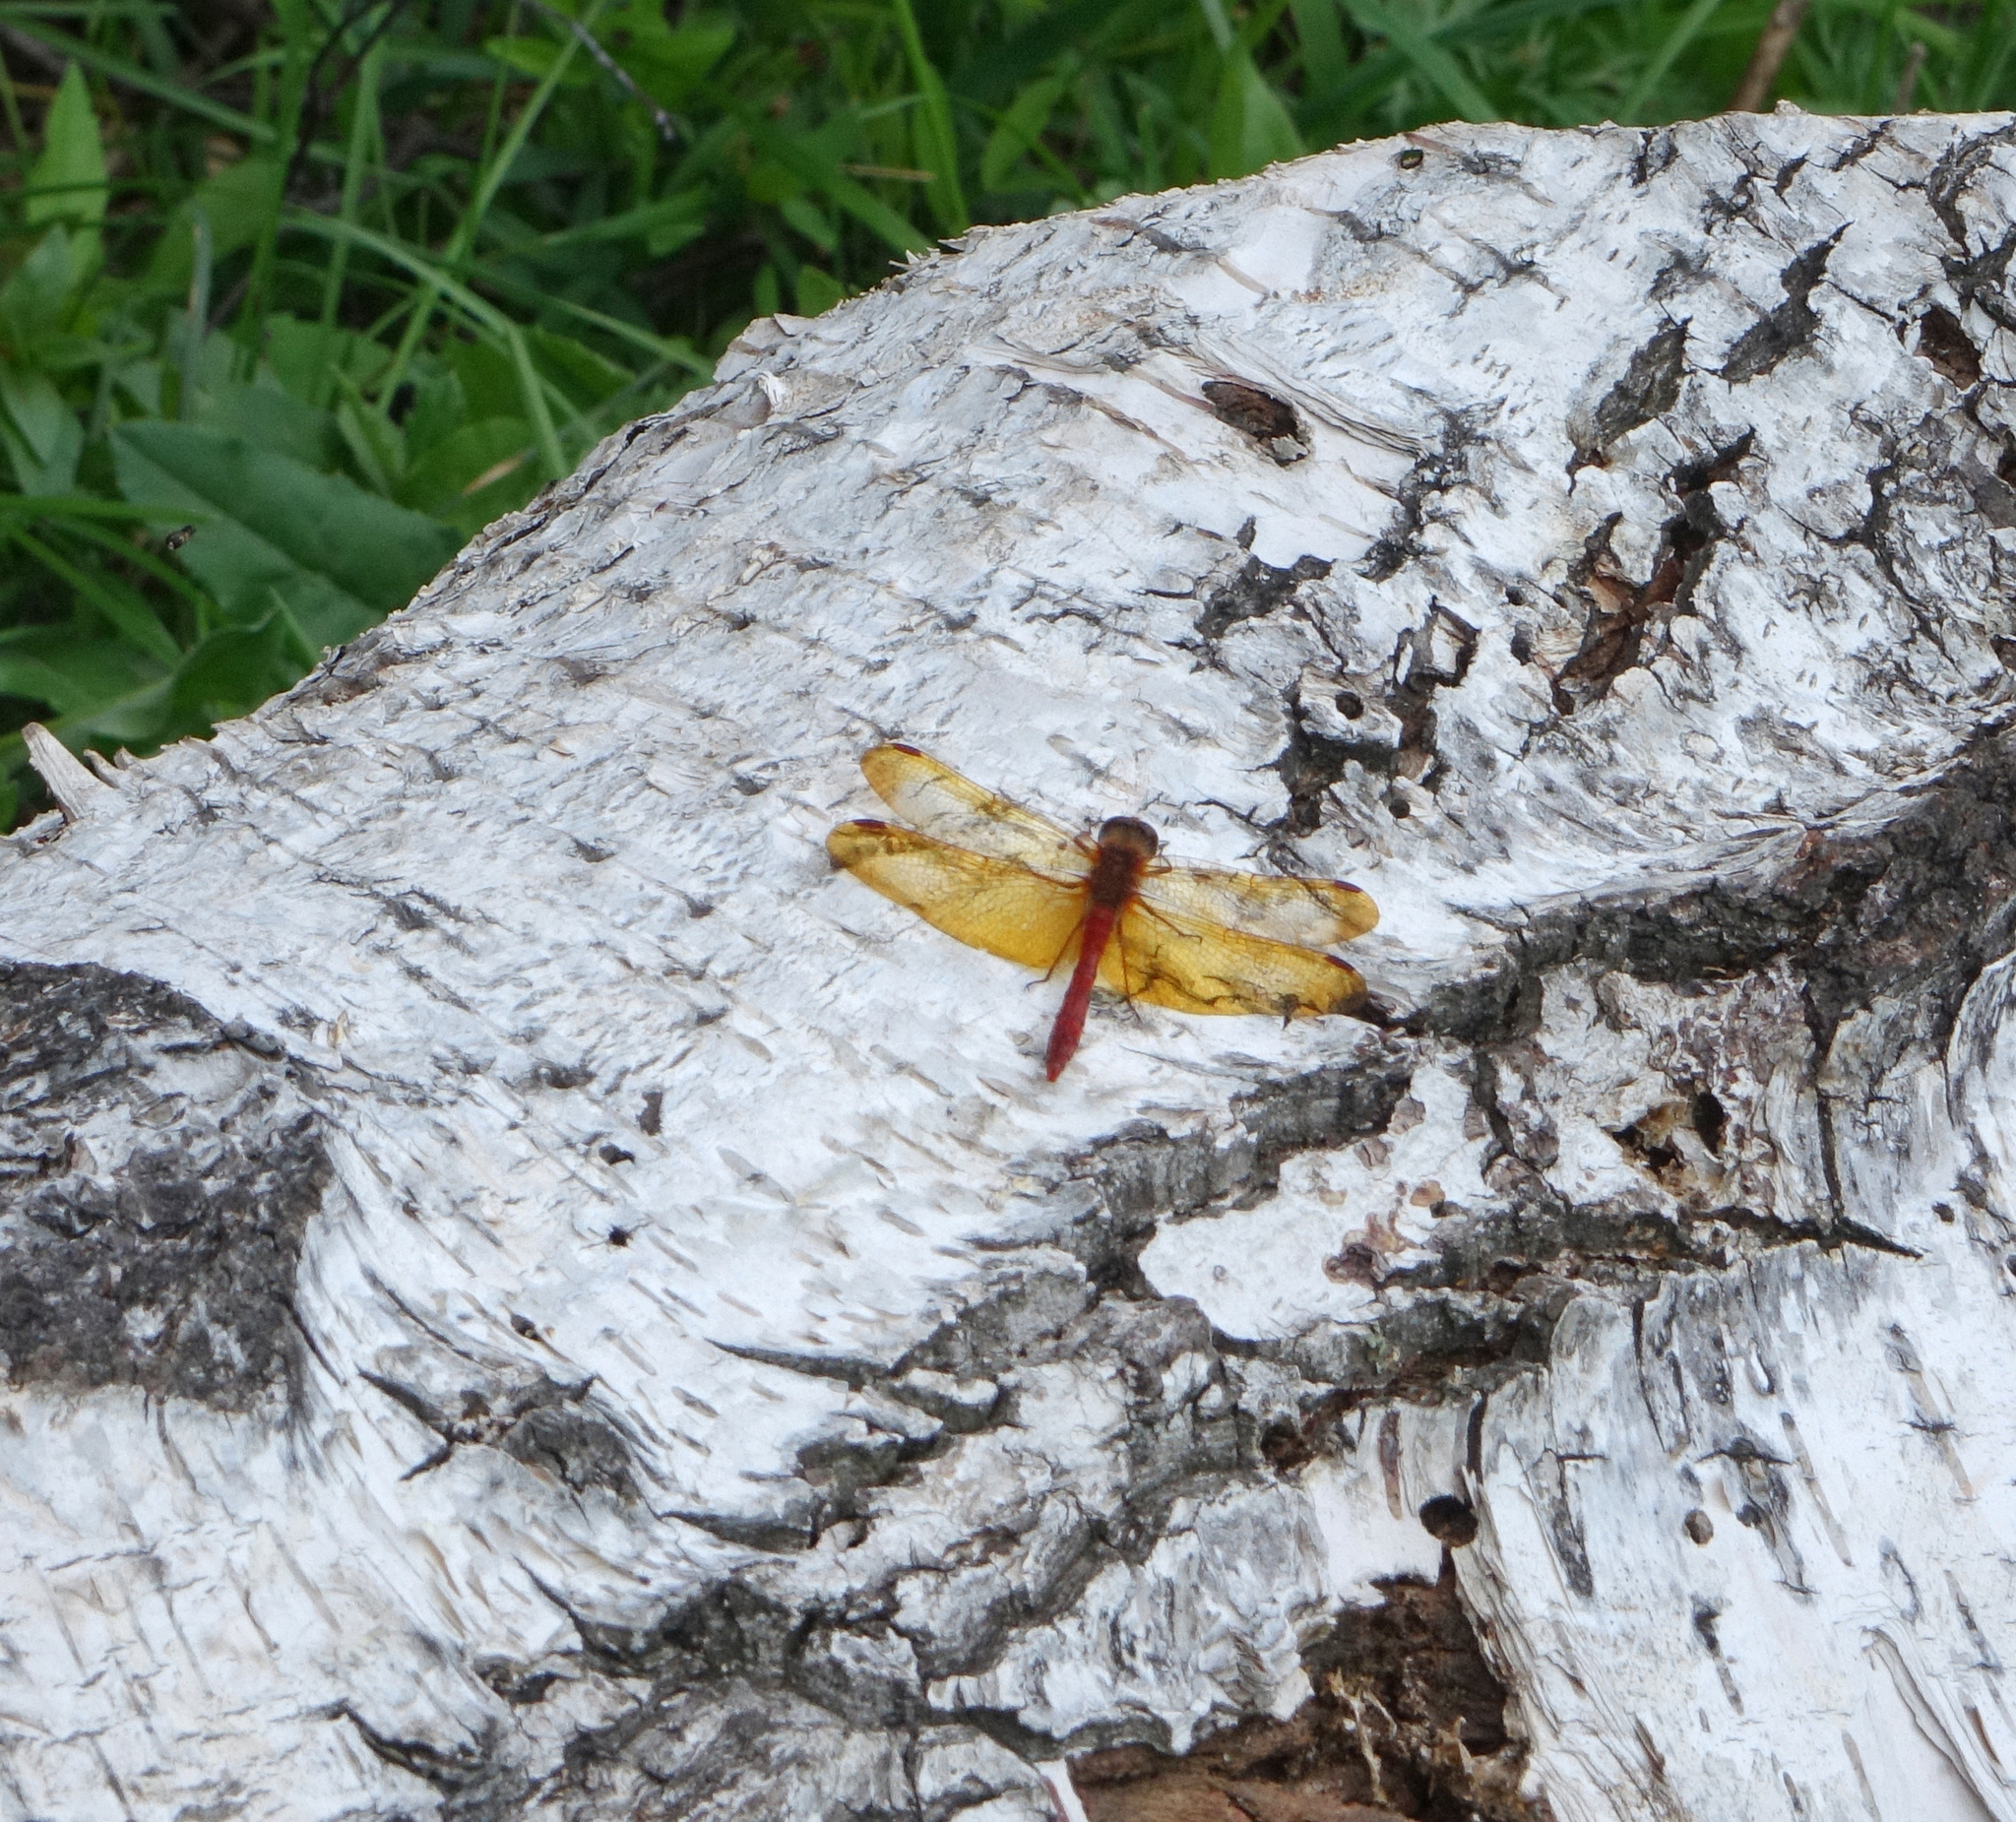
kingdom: Animalia
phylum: Arthropoda
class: Insecta
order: Odonata
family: Libellulidae
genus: Sympetrum
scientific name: Sympetrum croceolum
